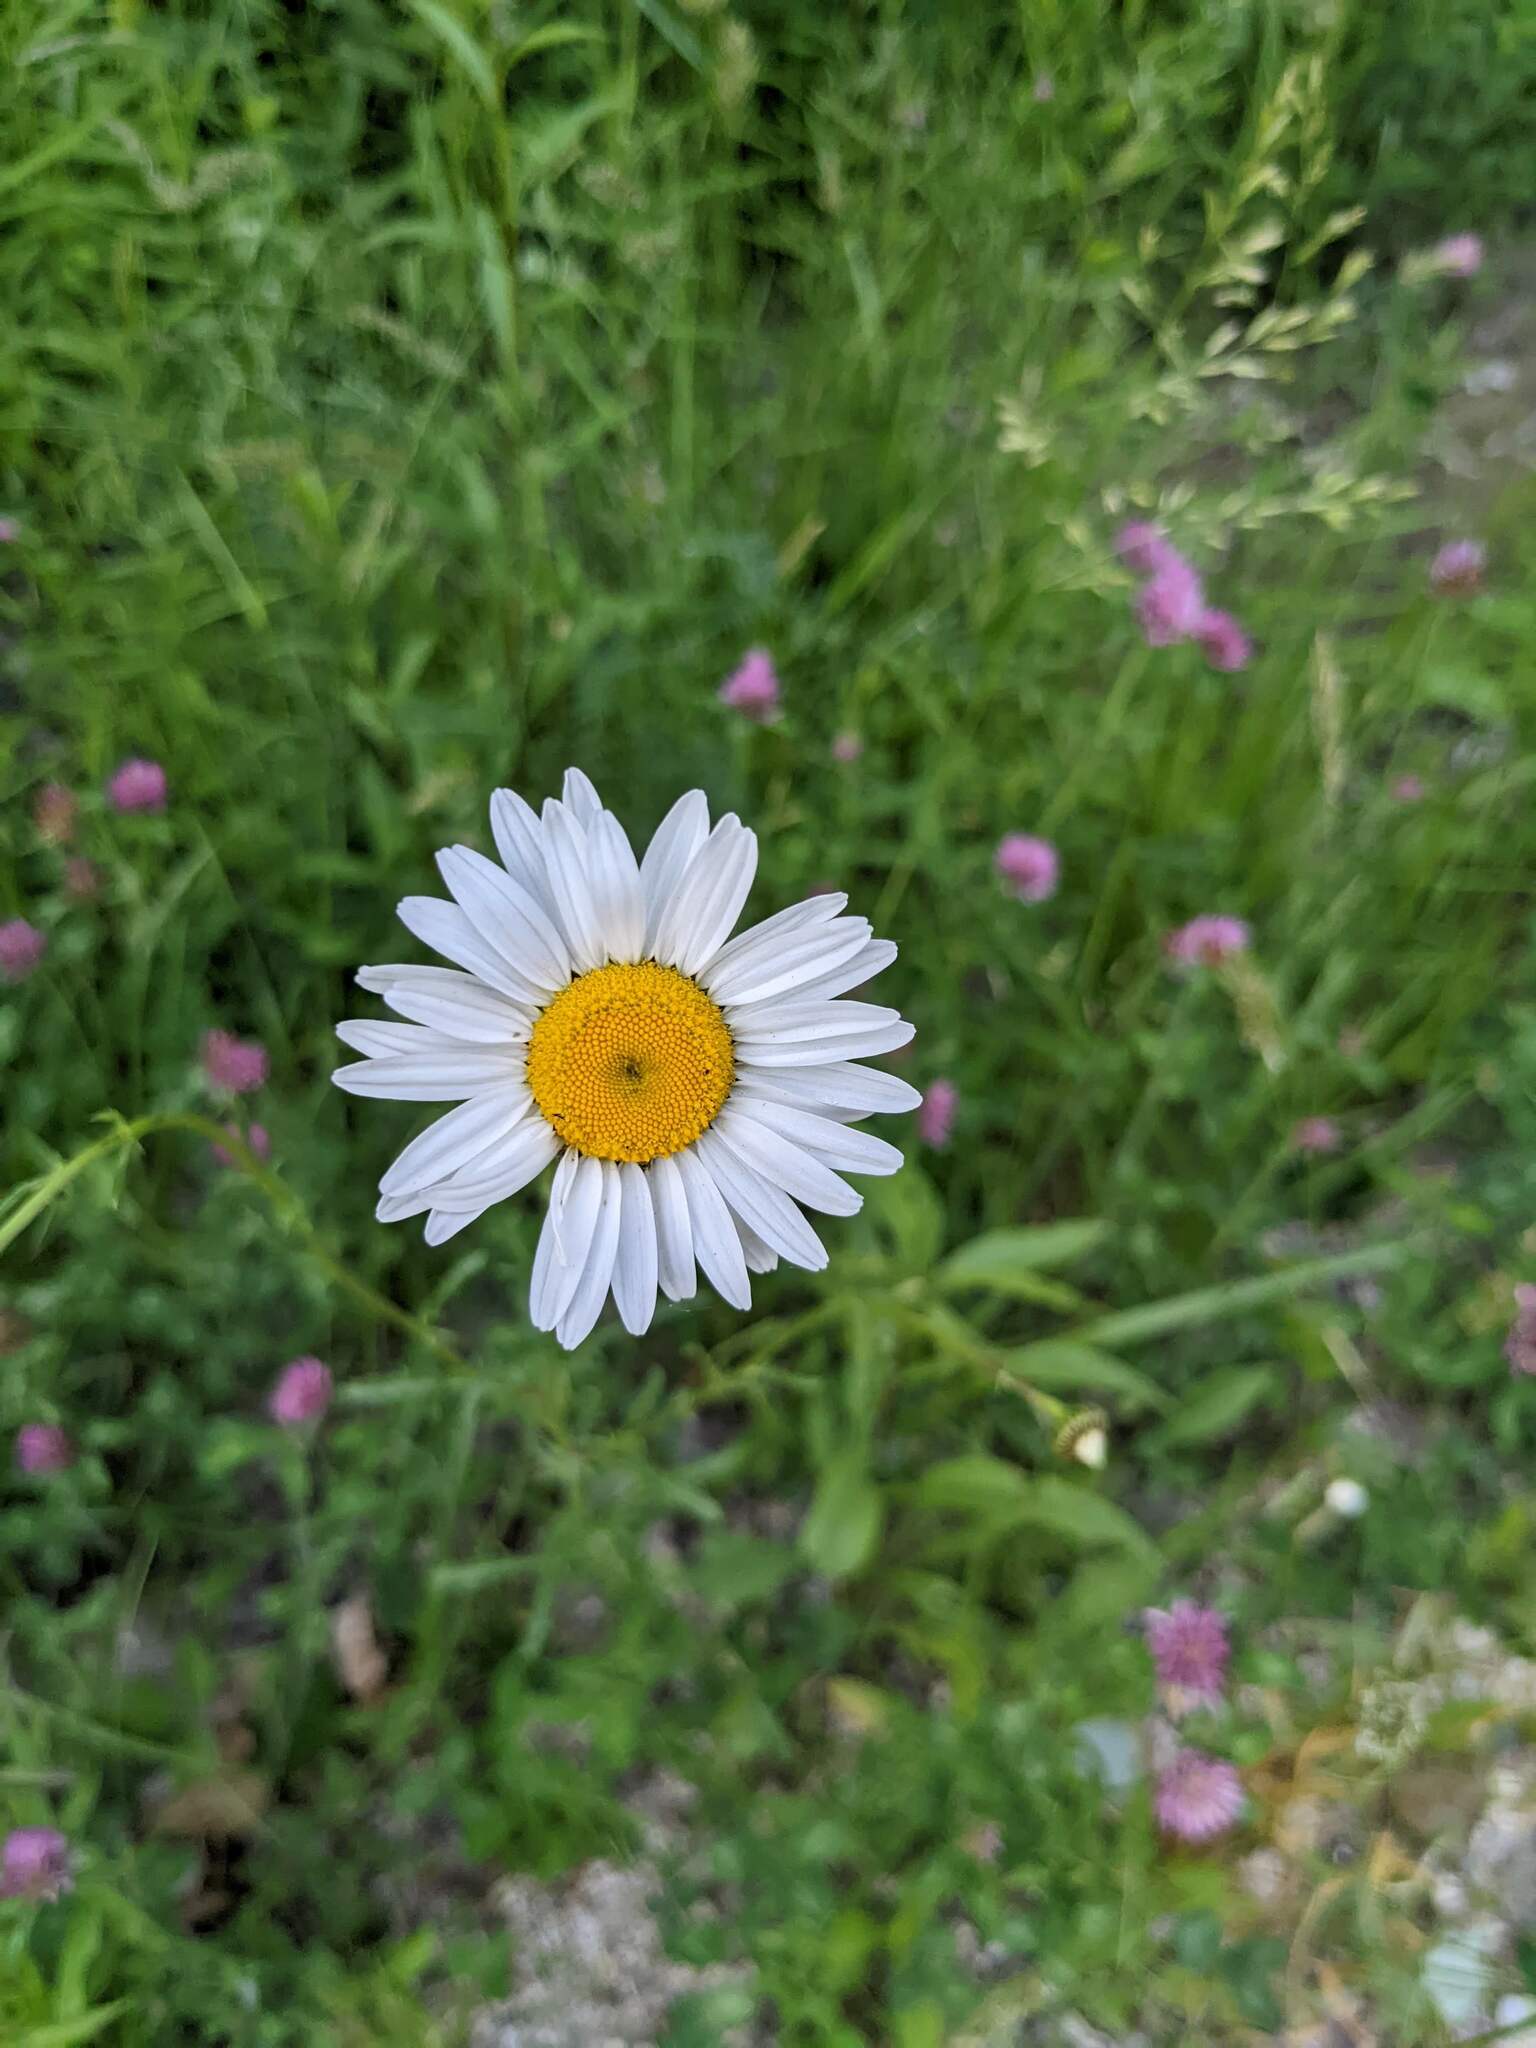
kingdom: Plantae
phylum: Tracheophyta
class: Magnoliopsida
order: Asterales
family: Asteraceae
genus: Leucanthemum
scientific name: Leucanthemum vulgare
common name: Oxeye daisy
